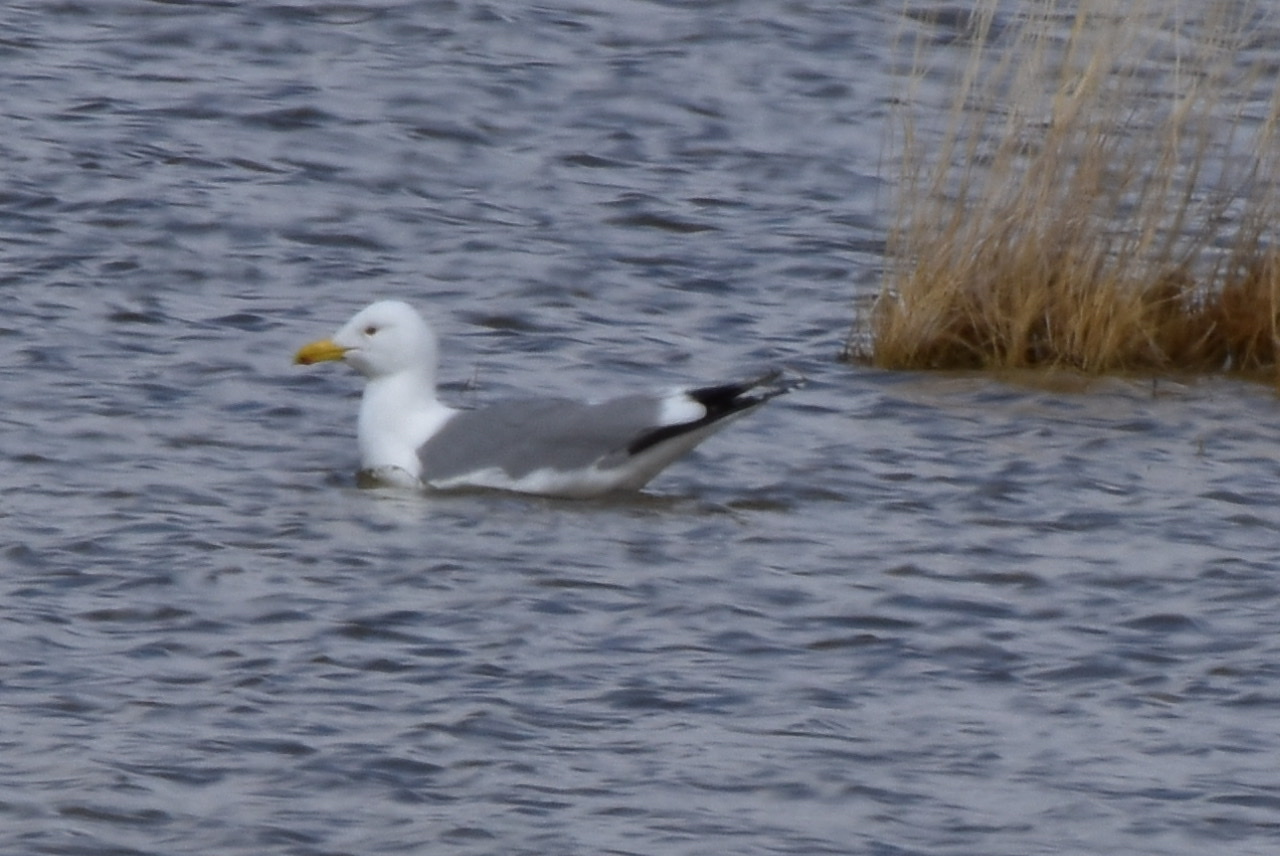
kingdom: Animalia
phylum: Chordata
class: Aves
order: Charadriiformes
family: Laridae
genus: Larus
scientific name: Larus vegae
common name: Vega gull
